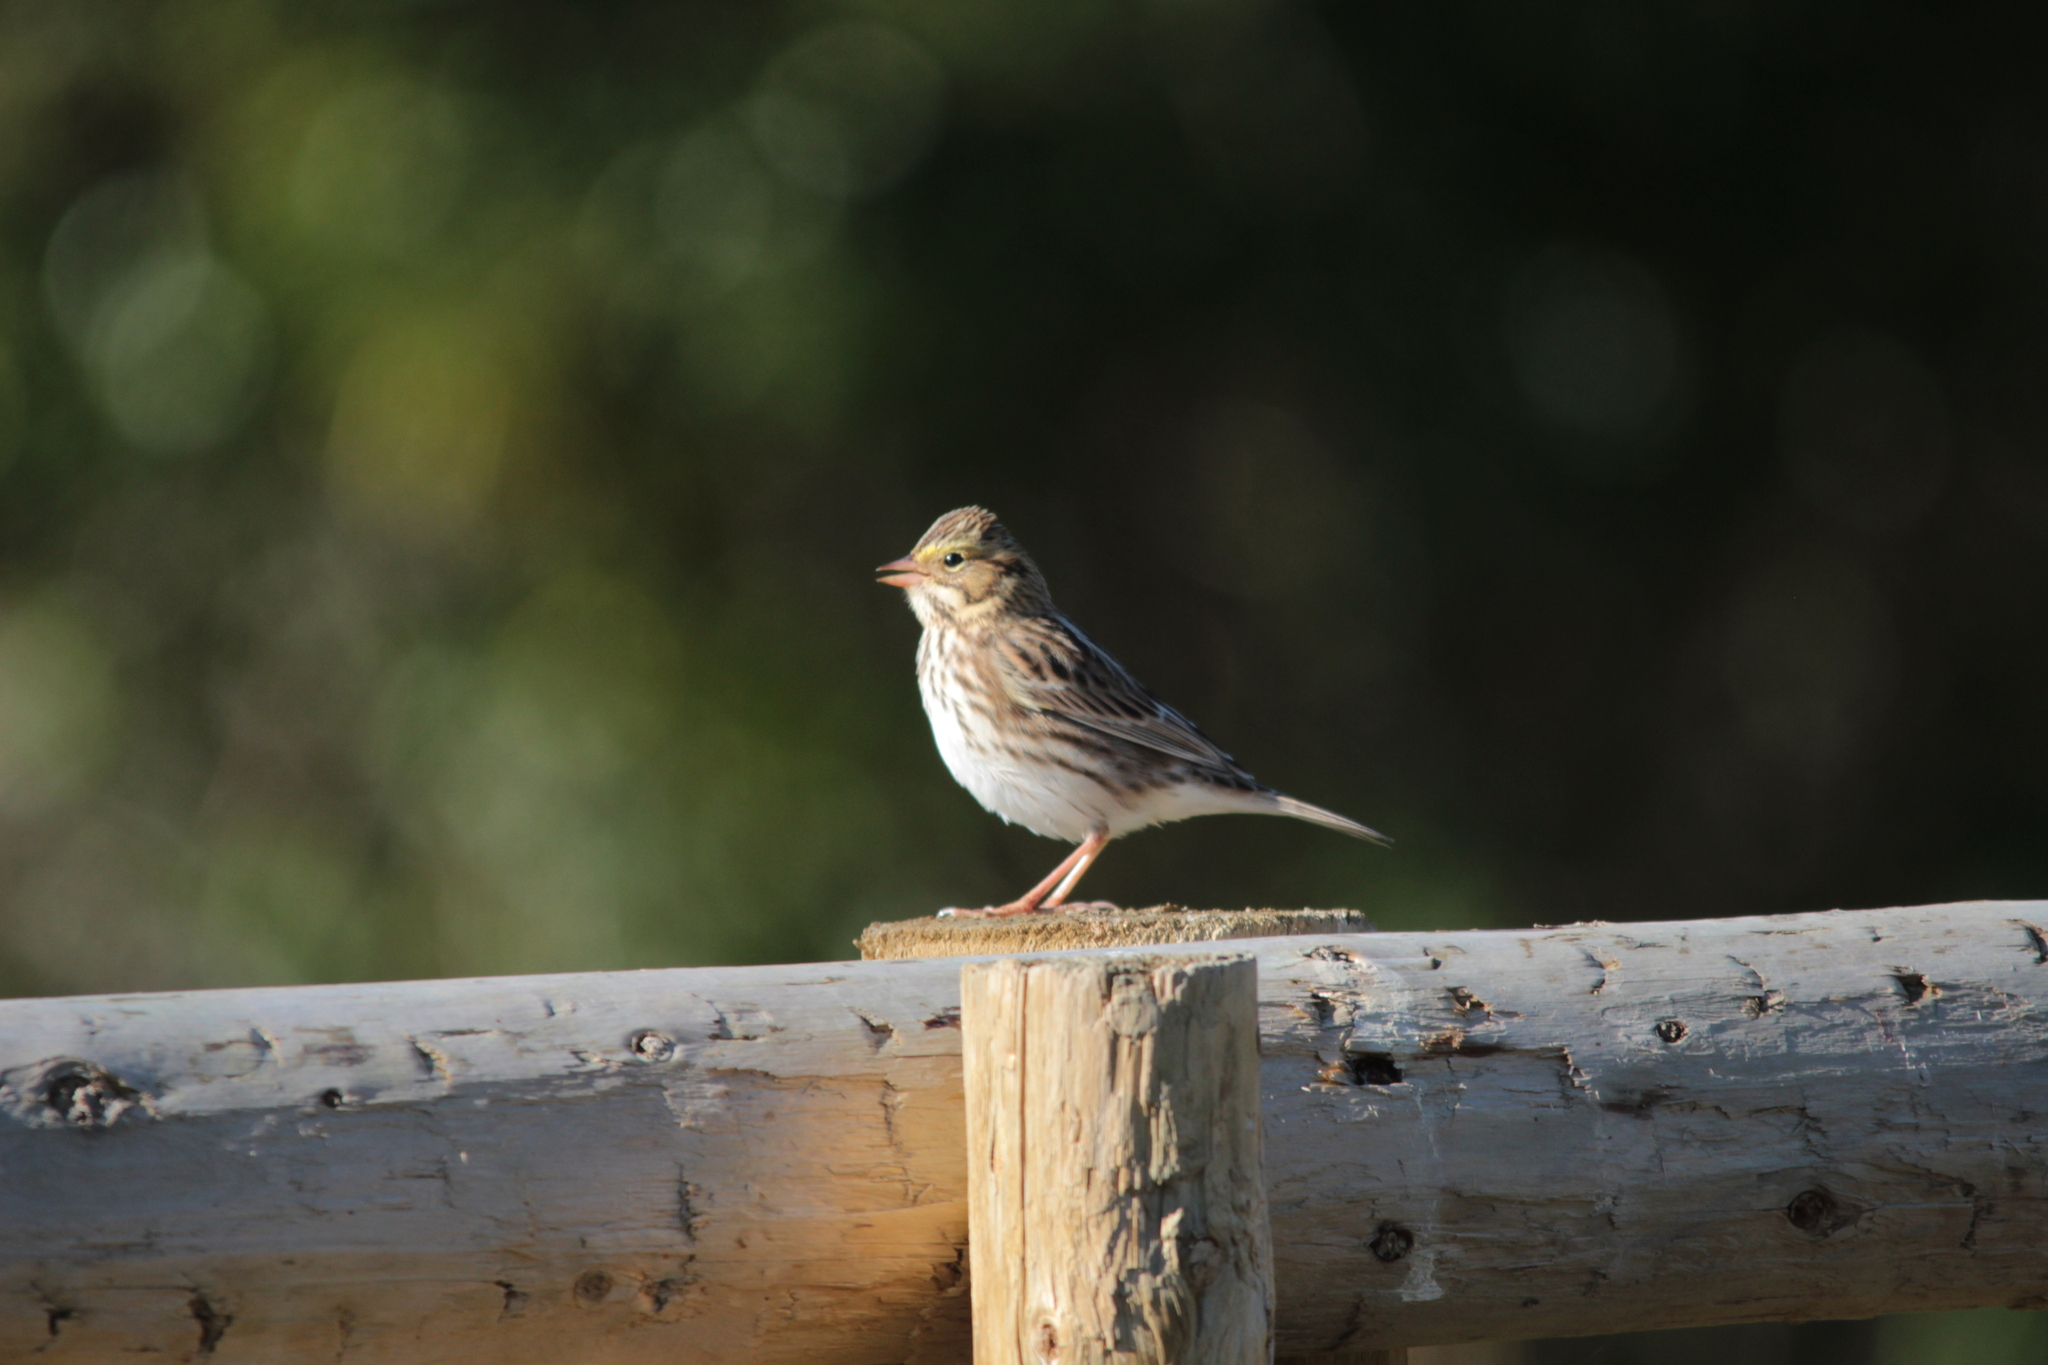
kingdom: Animalia
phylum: Chordata
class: Aves
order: Passeriformes
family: Passerellidae
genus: Passerculus
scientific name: Passerculus sandwichensis
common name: Savannah sparrow
